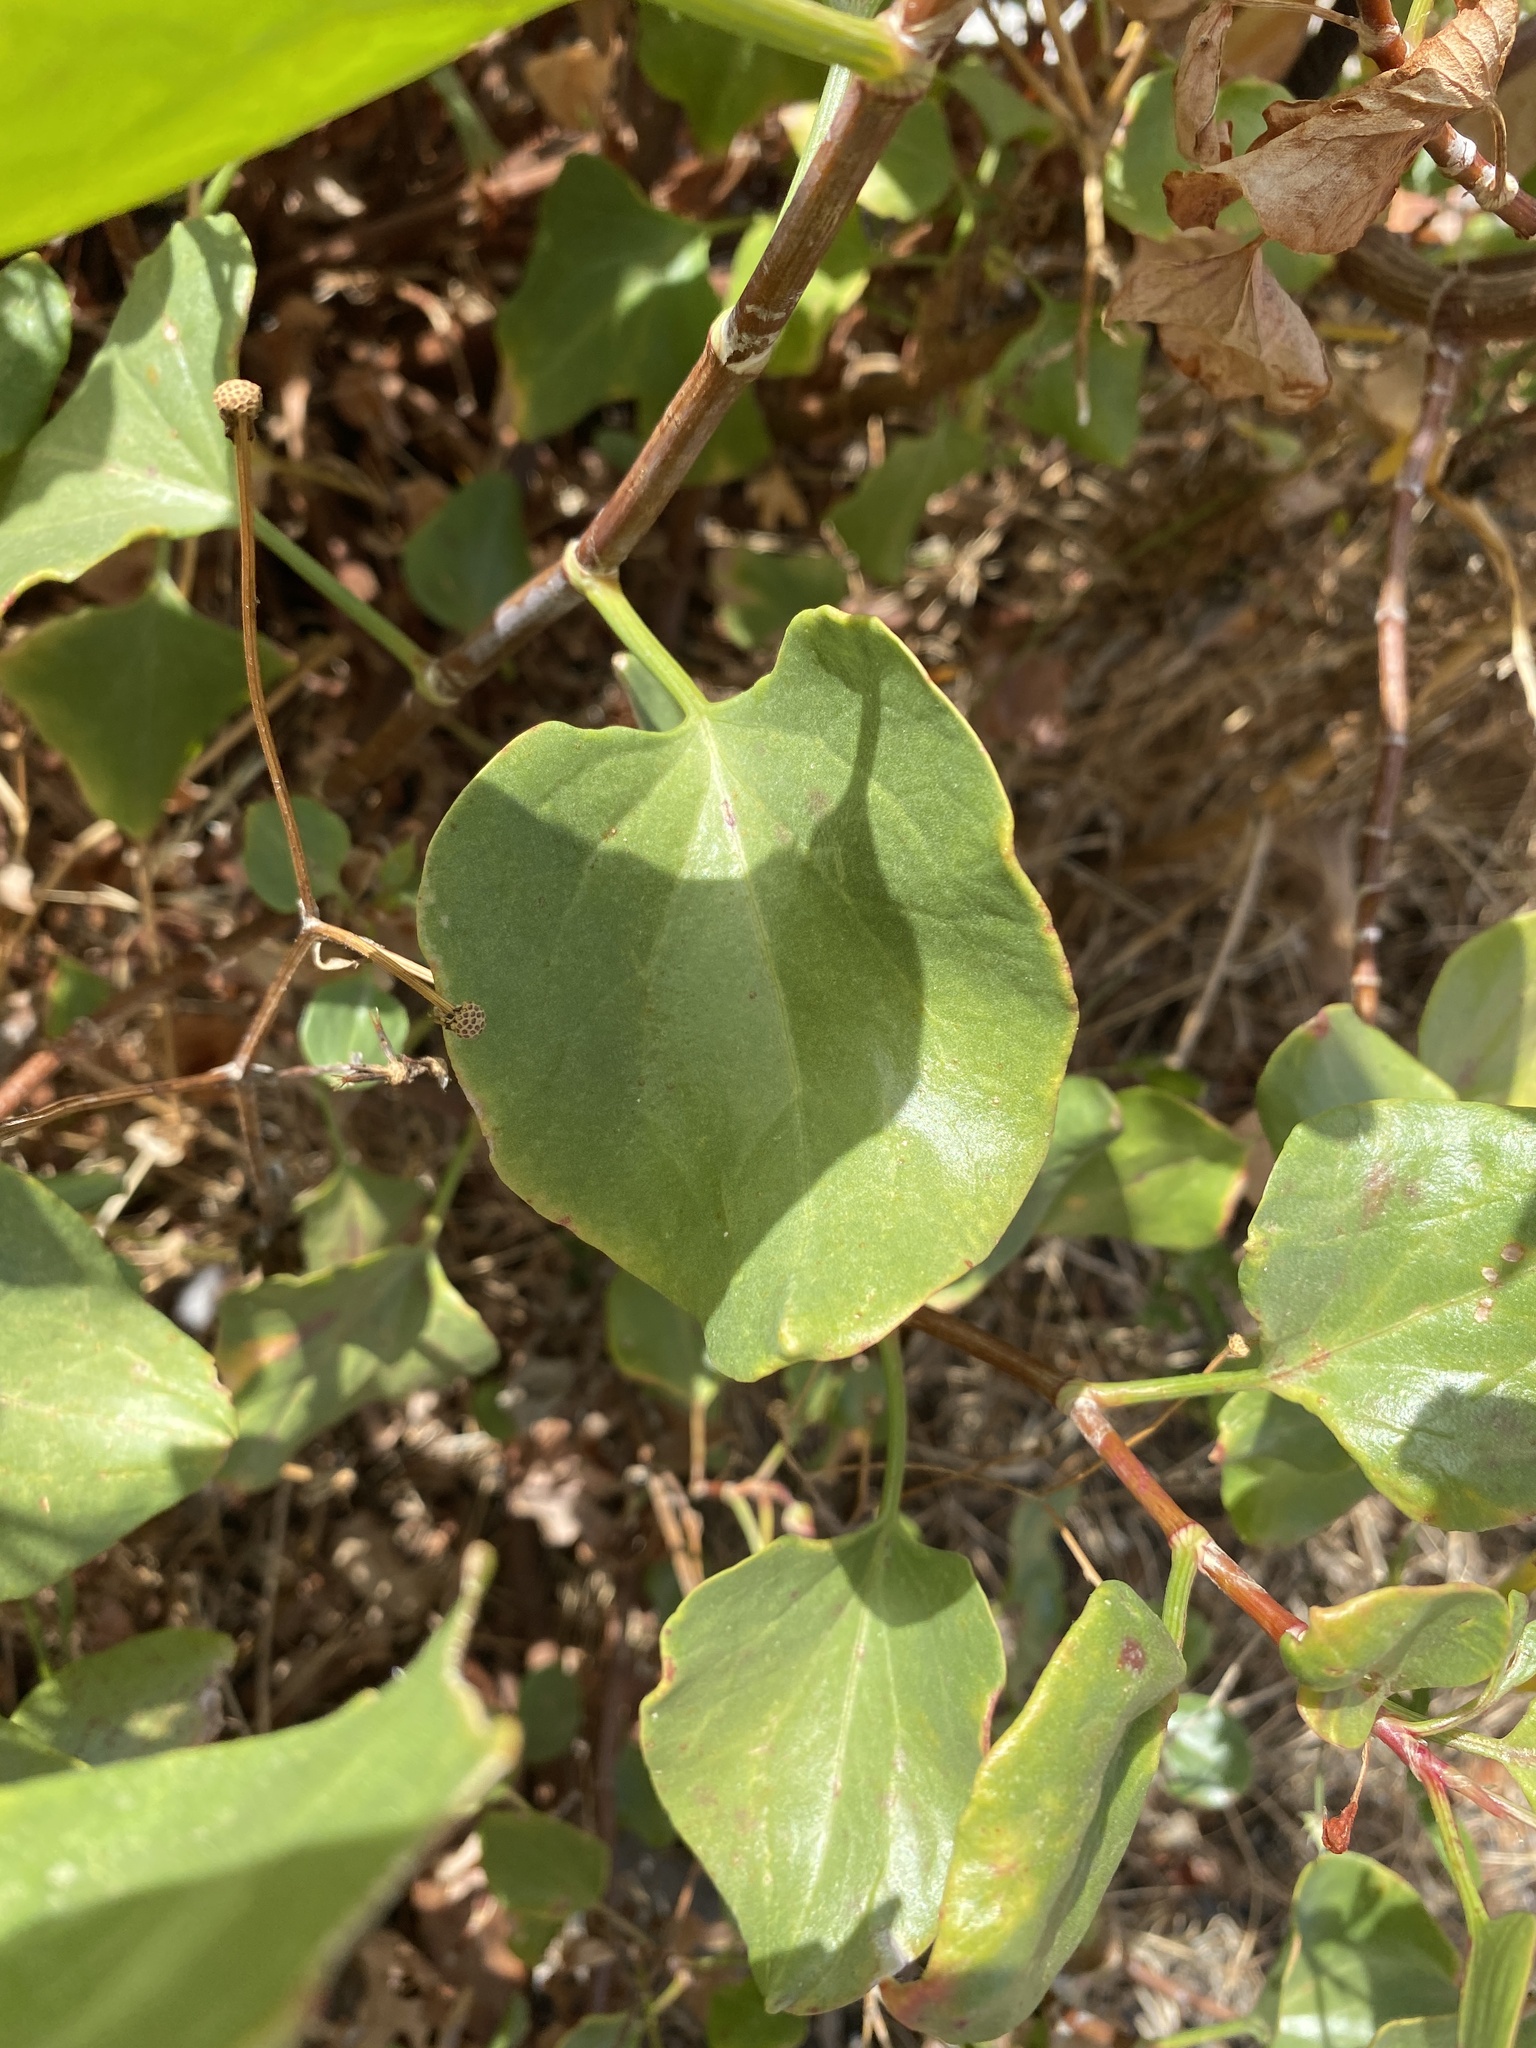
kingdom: Plantae
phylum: Tracheophyta
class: Magnoliopsida
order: Caryophyllales
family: Polygonaceae
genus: Rumex
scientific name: Rumex lunaria
